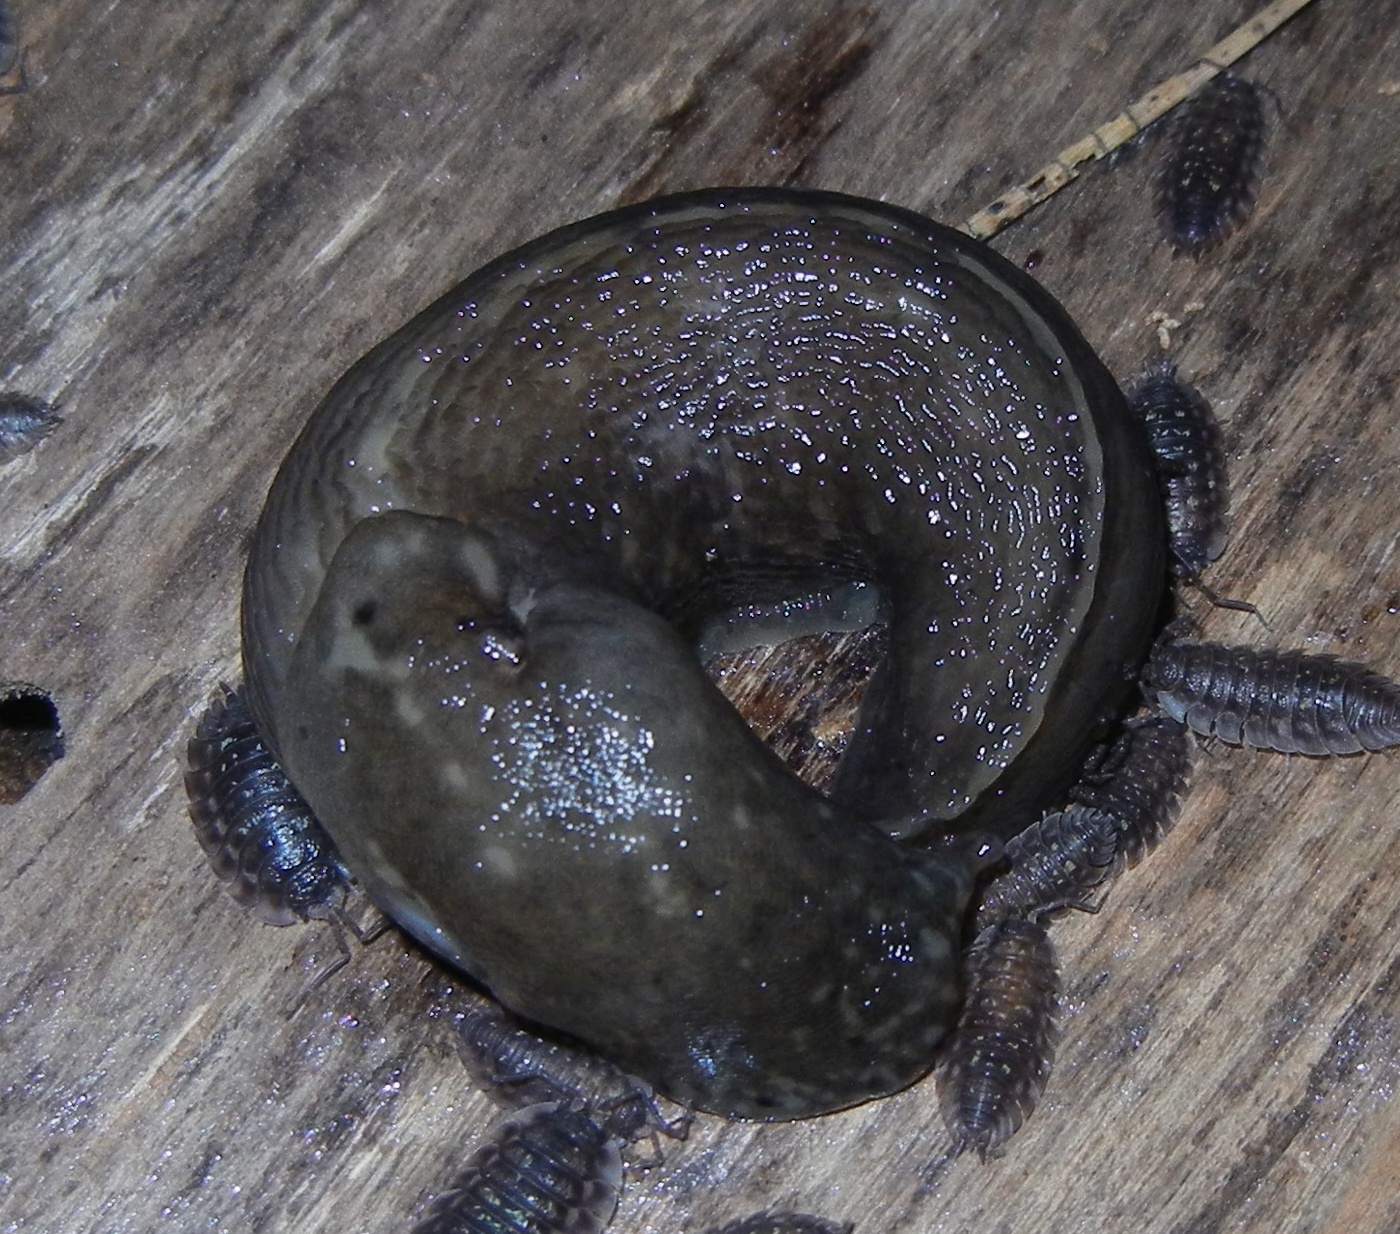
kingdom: Animalia
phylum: Mollusca
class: Gastropoda
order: Stylommatophora
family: Limacidae
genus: Limax
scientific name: Limax maximus
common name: Great grey slug
